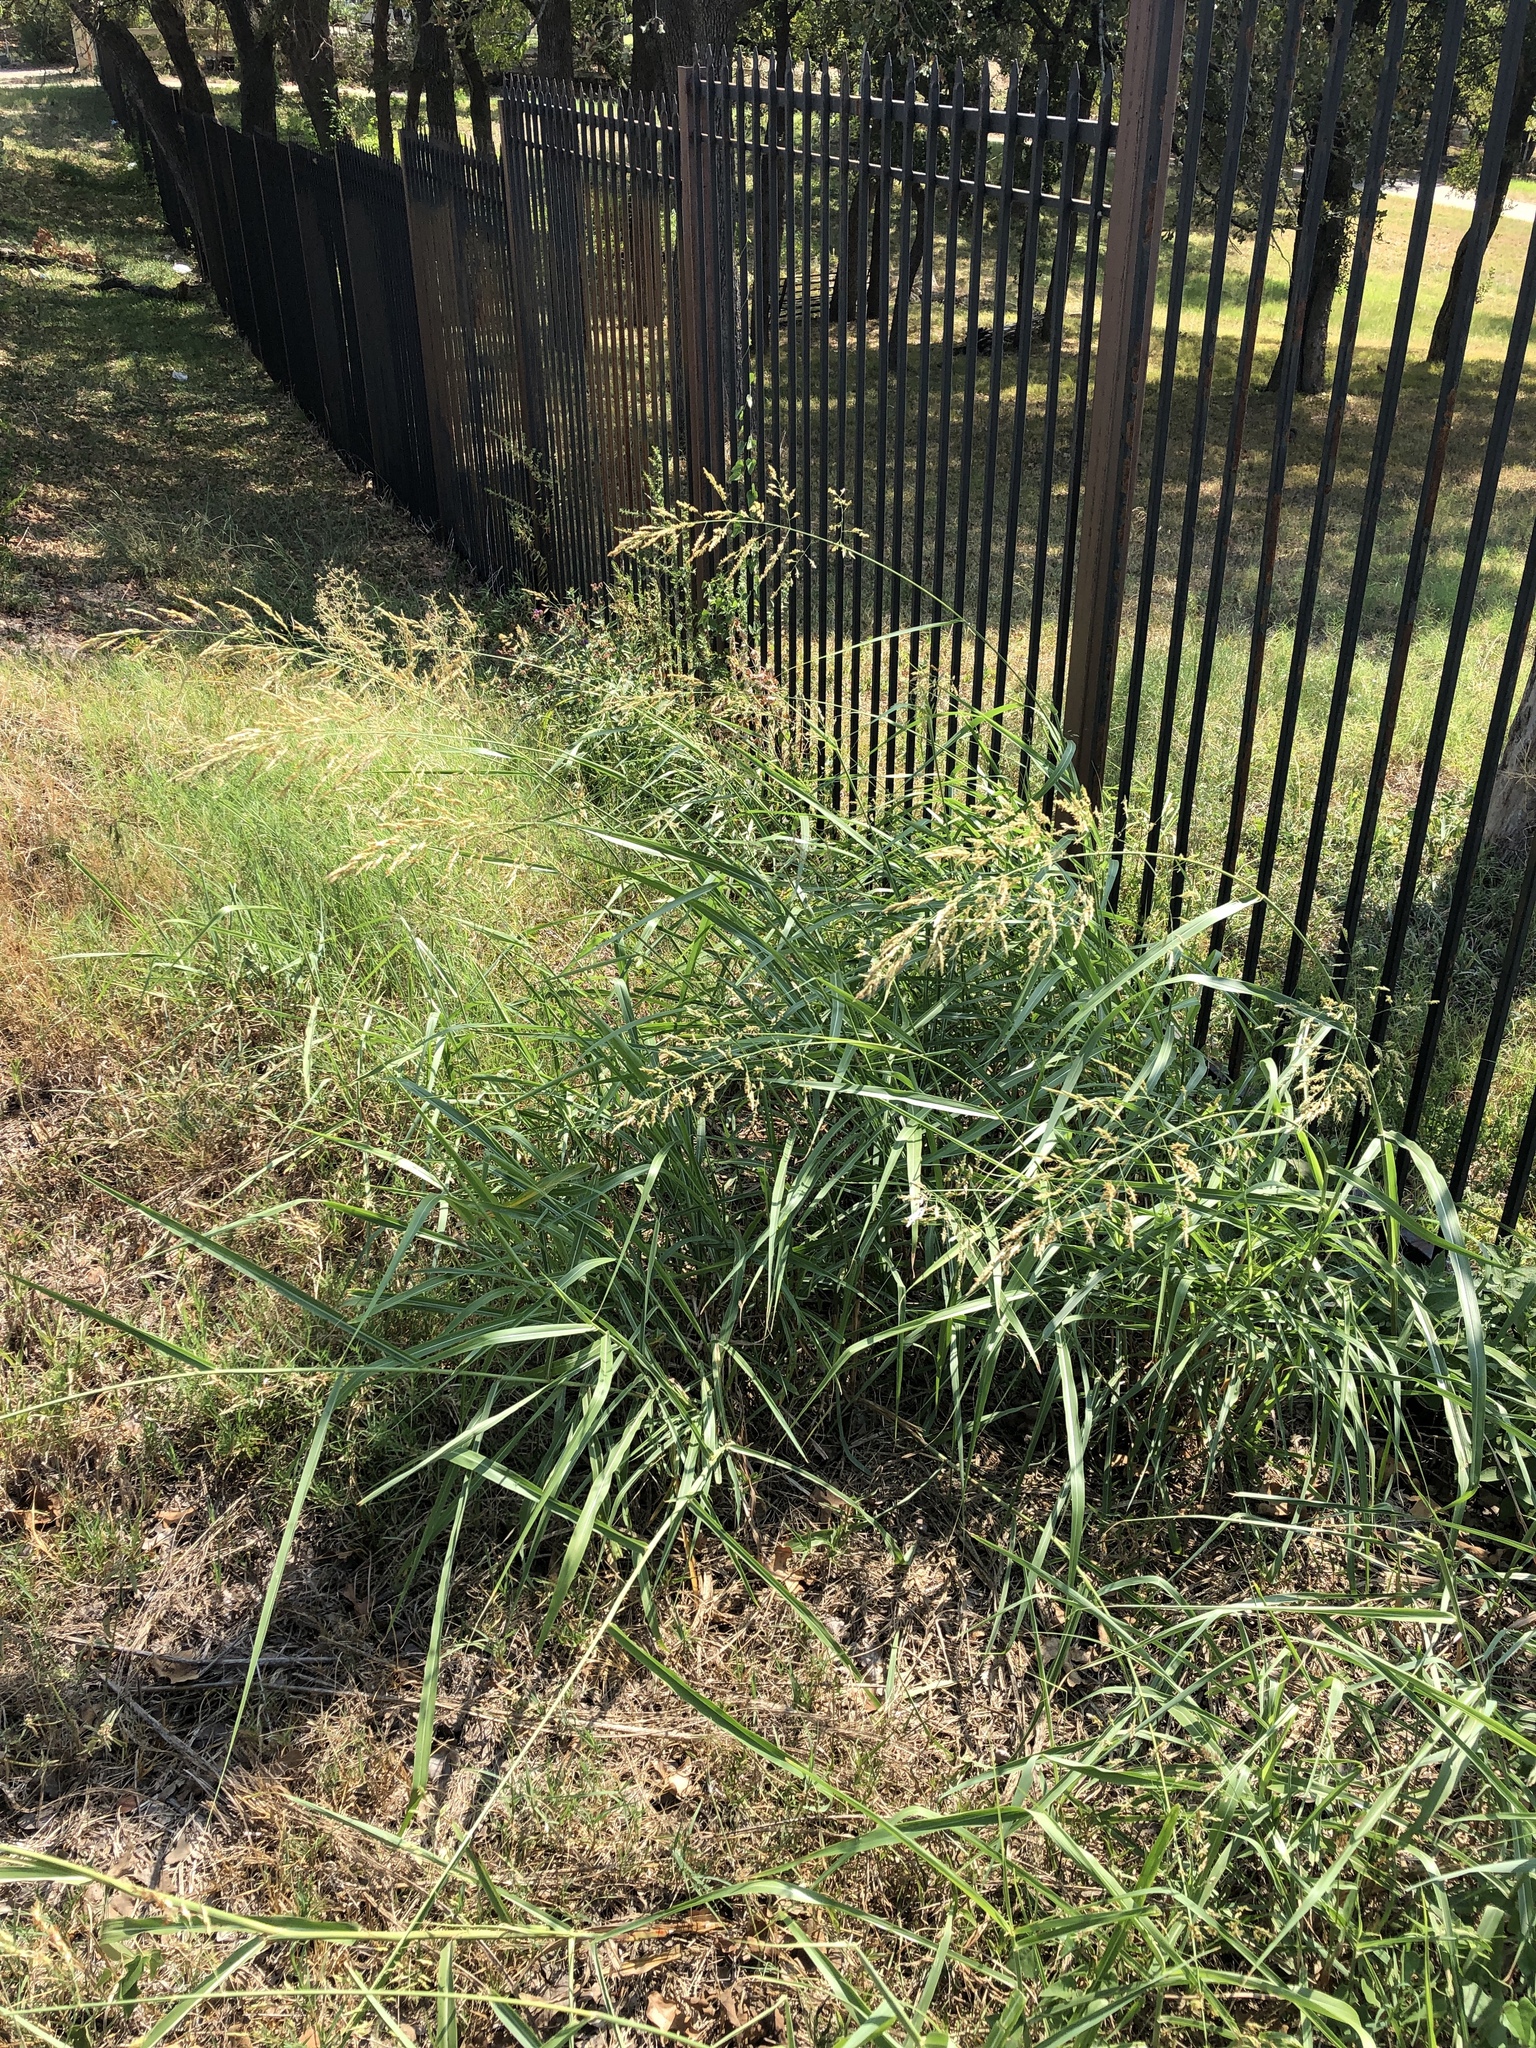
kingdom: Plantae
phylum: Tracheophyta
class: Liliopsida
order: Poales
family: Poaceae
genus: Sorghum
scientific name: Sorghum halepense
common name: Johnson-grass
